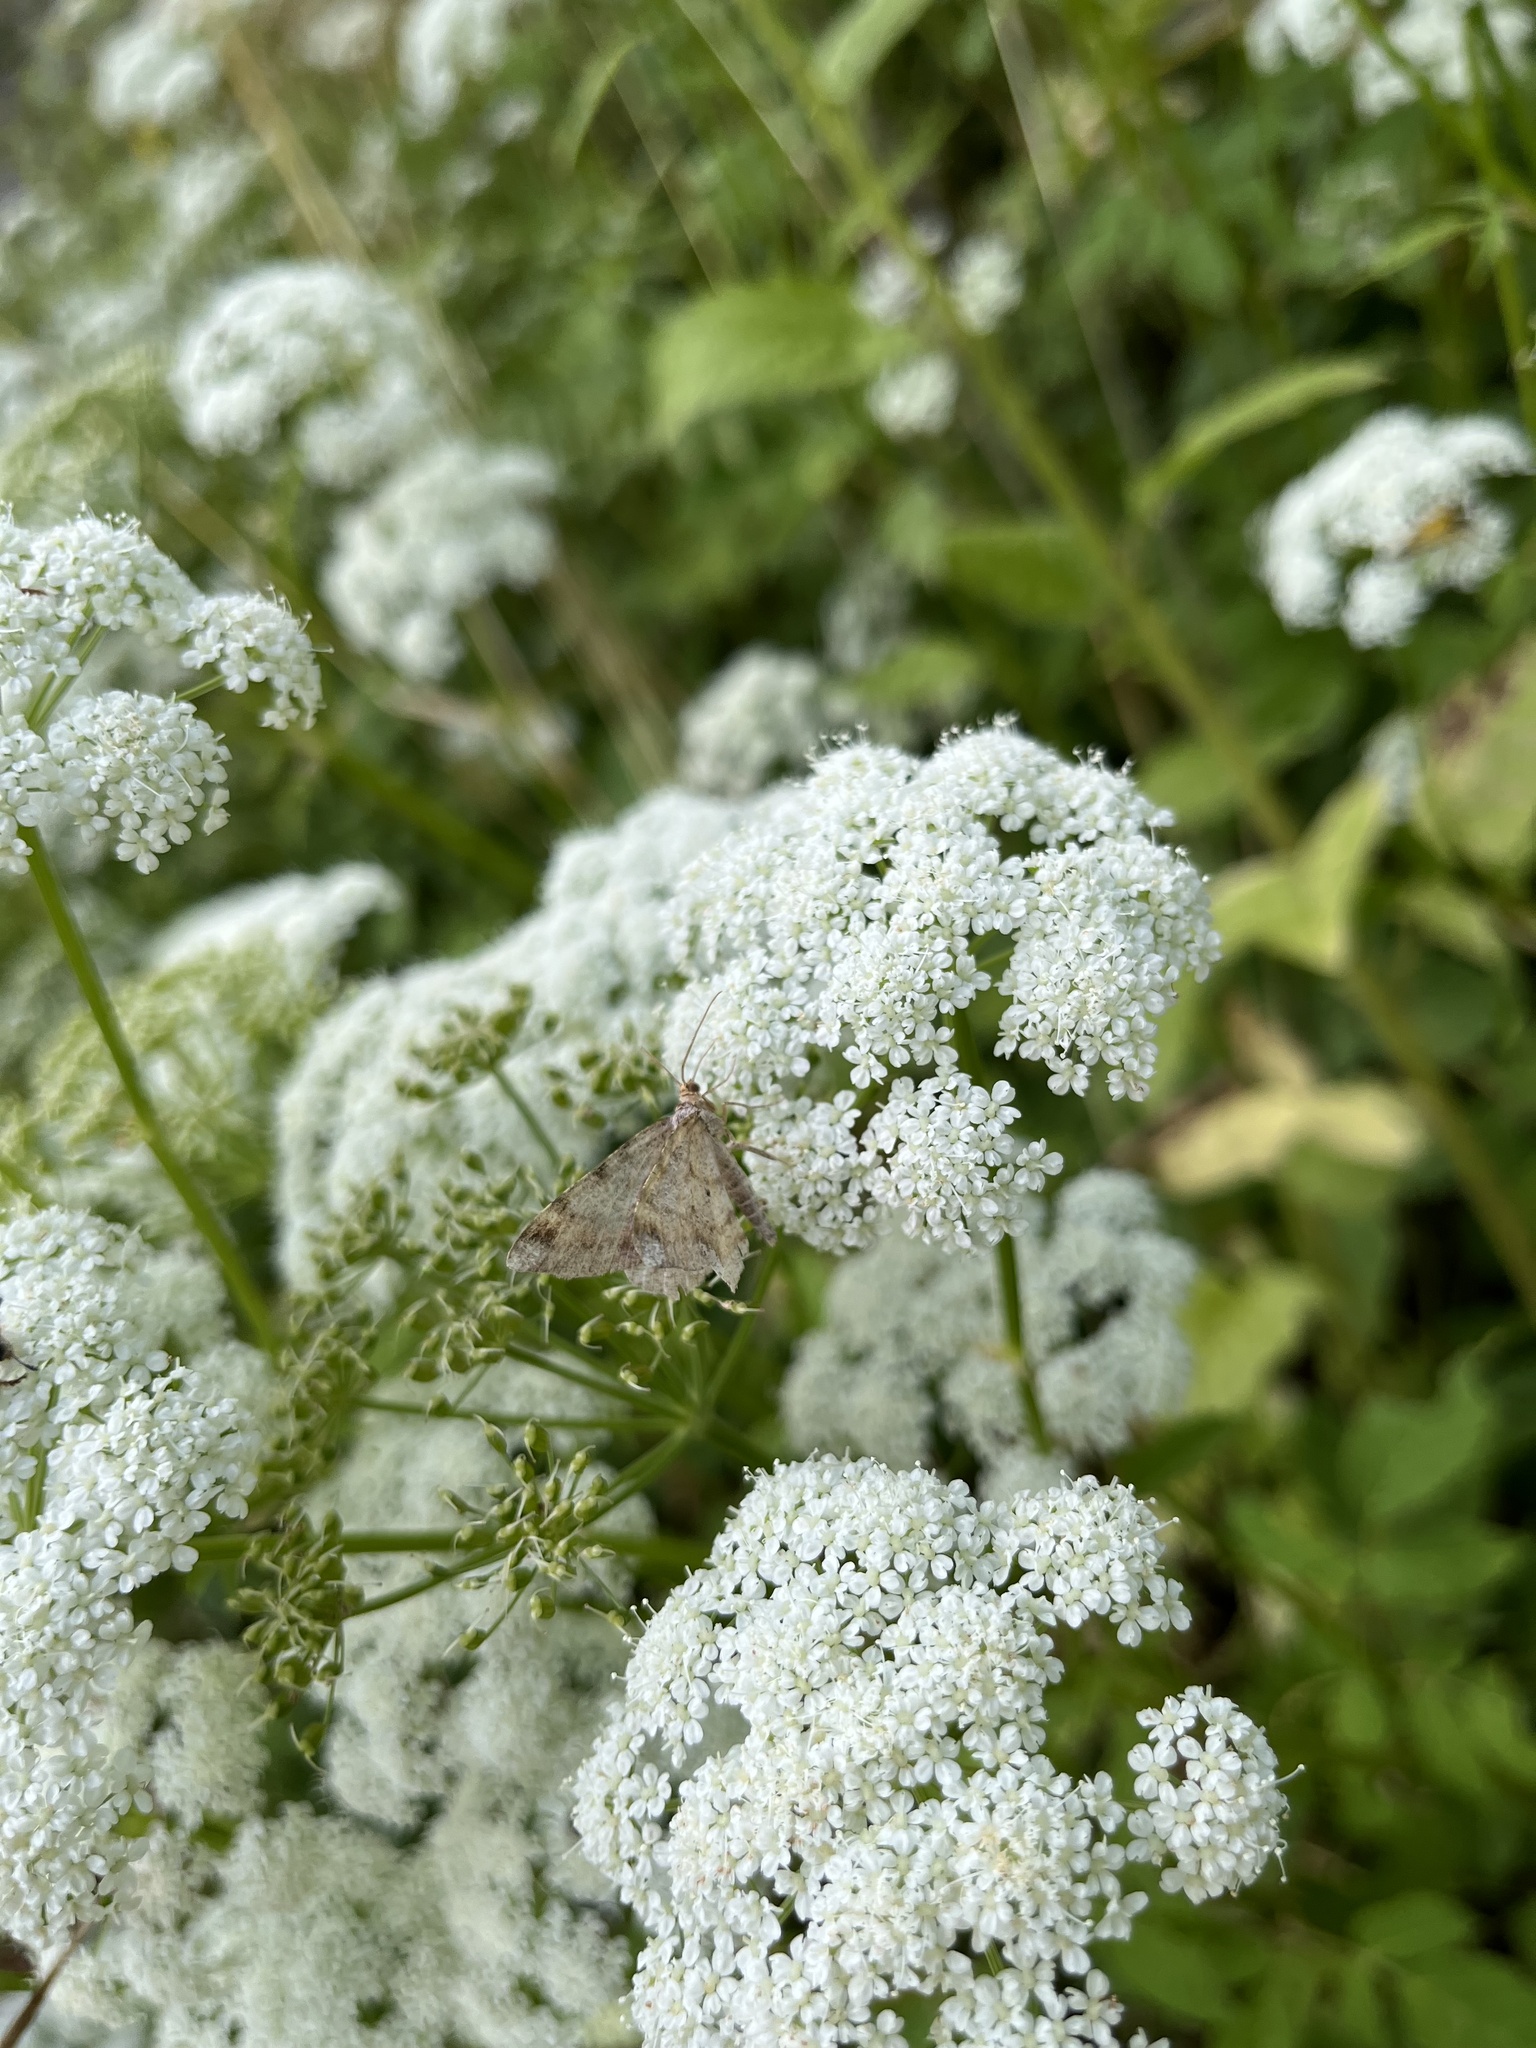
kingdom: Animalia
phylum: Arthropoda
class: Insecta
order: Lepidoptera
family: Geometridae
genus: Macaria
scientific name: Macaria liturata
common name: Tawny-barred angle
